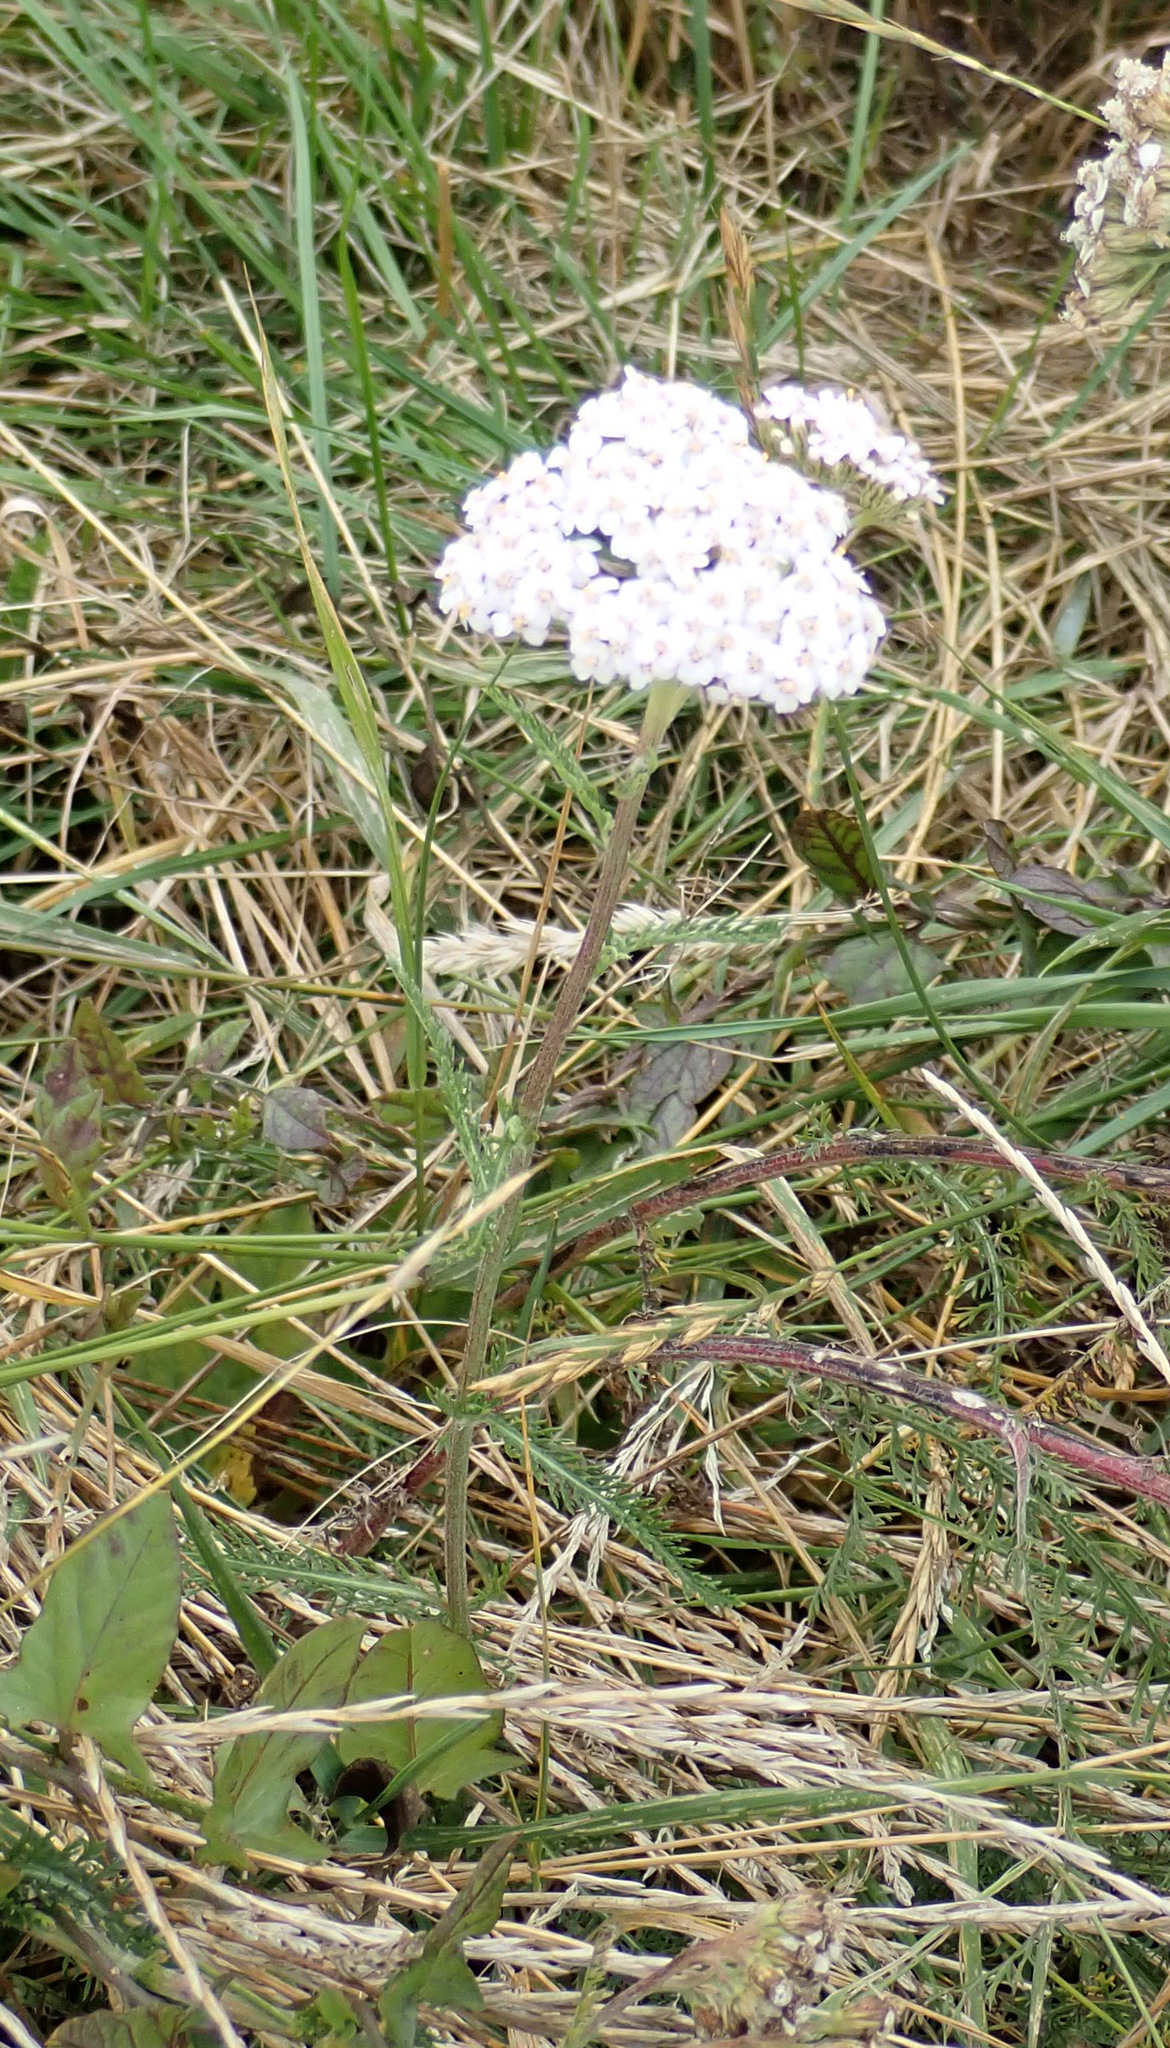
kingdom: Plantae
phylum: Tracheophyta
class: Magnoliopsida
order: Asterales
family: Asteraceae
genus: Achillea
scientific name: Achillea millefolium
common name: Yarrow
